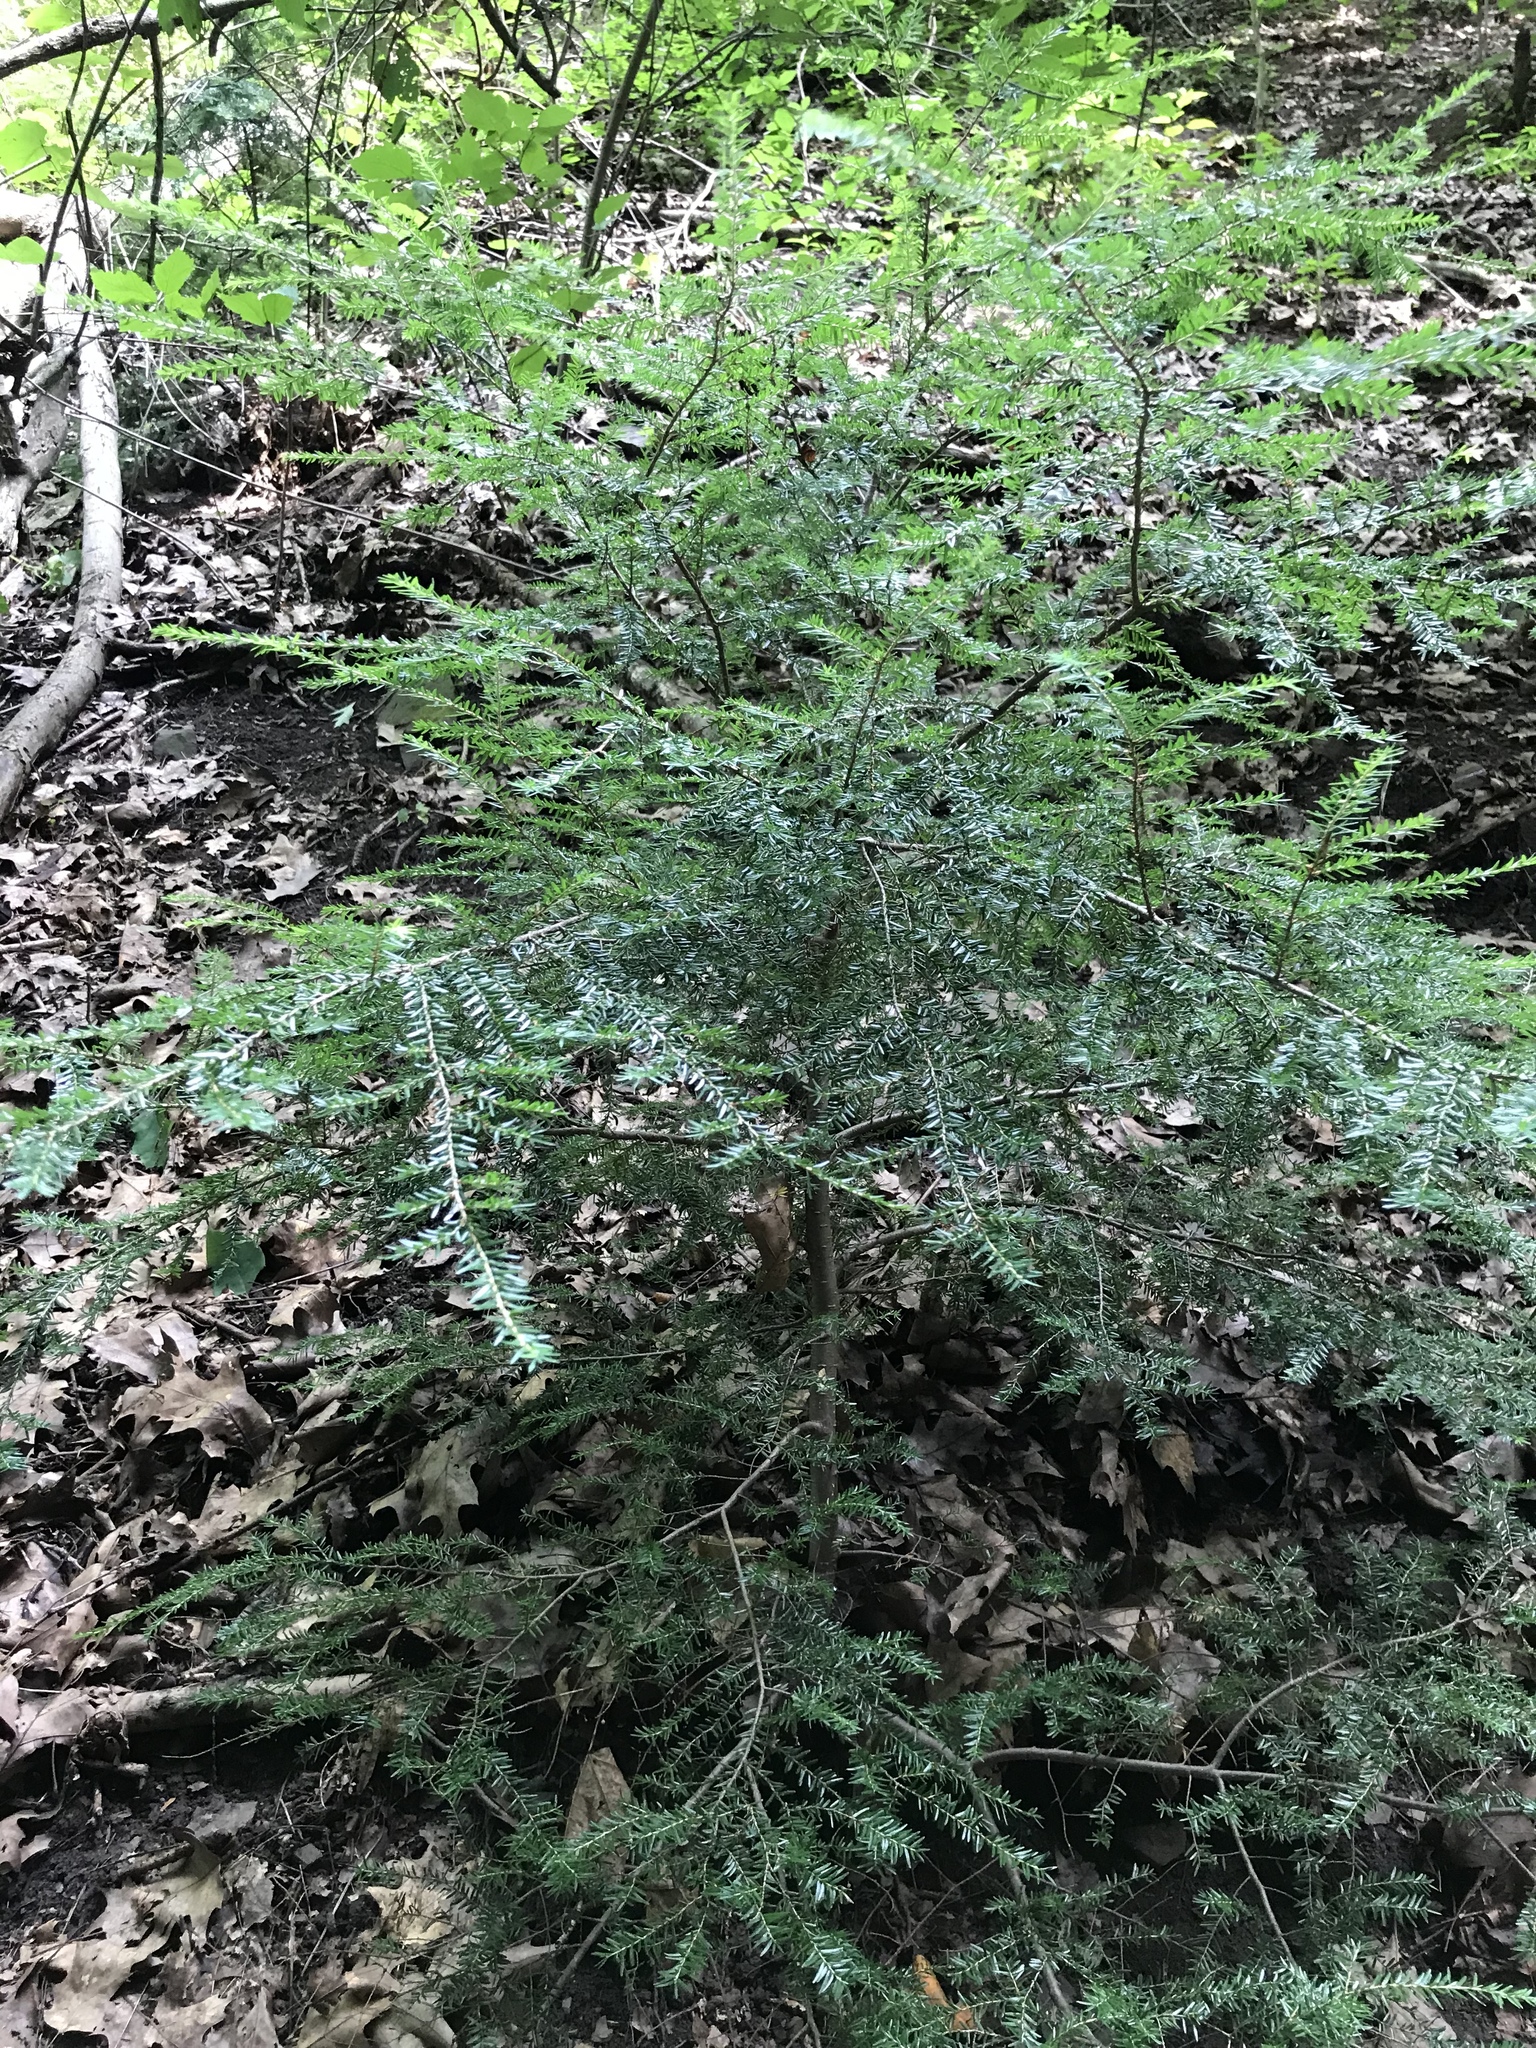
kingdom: Plantae
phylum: Tracheophyta
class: Pinopsida
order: Pinales
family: Pinaceae
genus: Tsuga
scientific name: Tsuga canadensis
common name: Eastern hemlock
